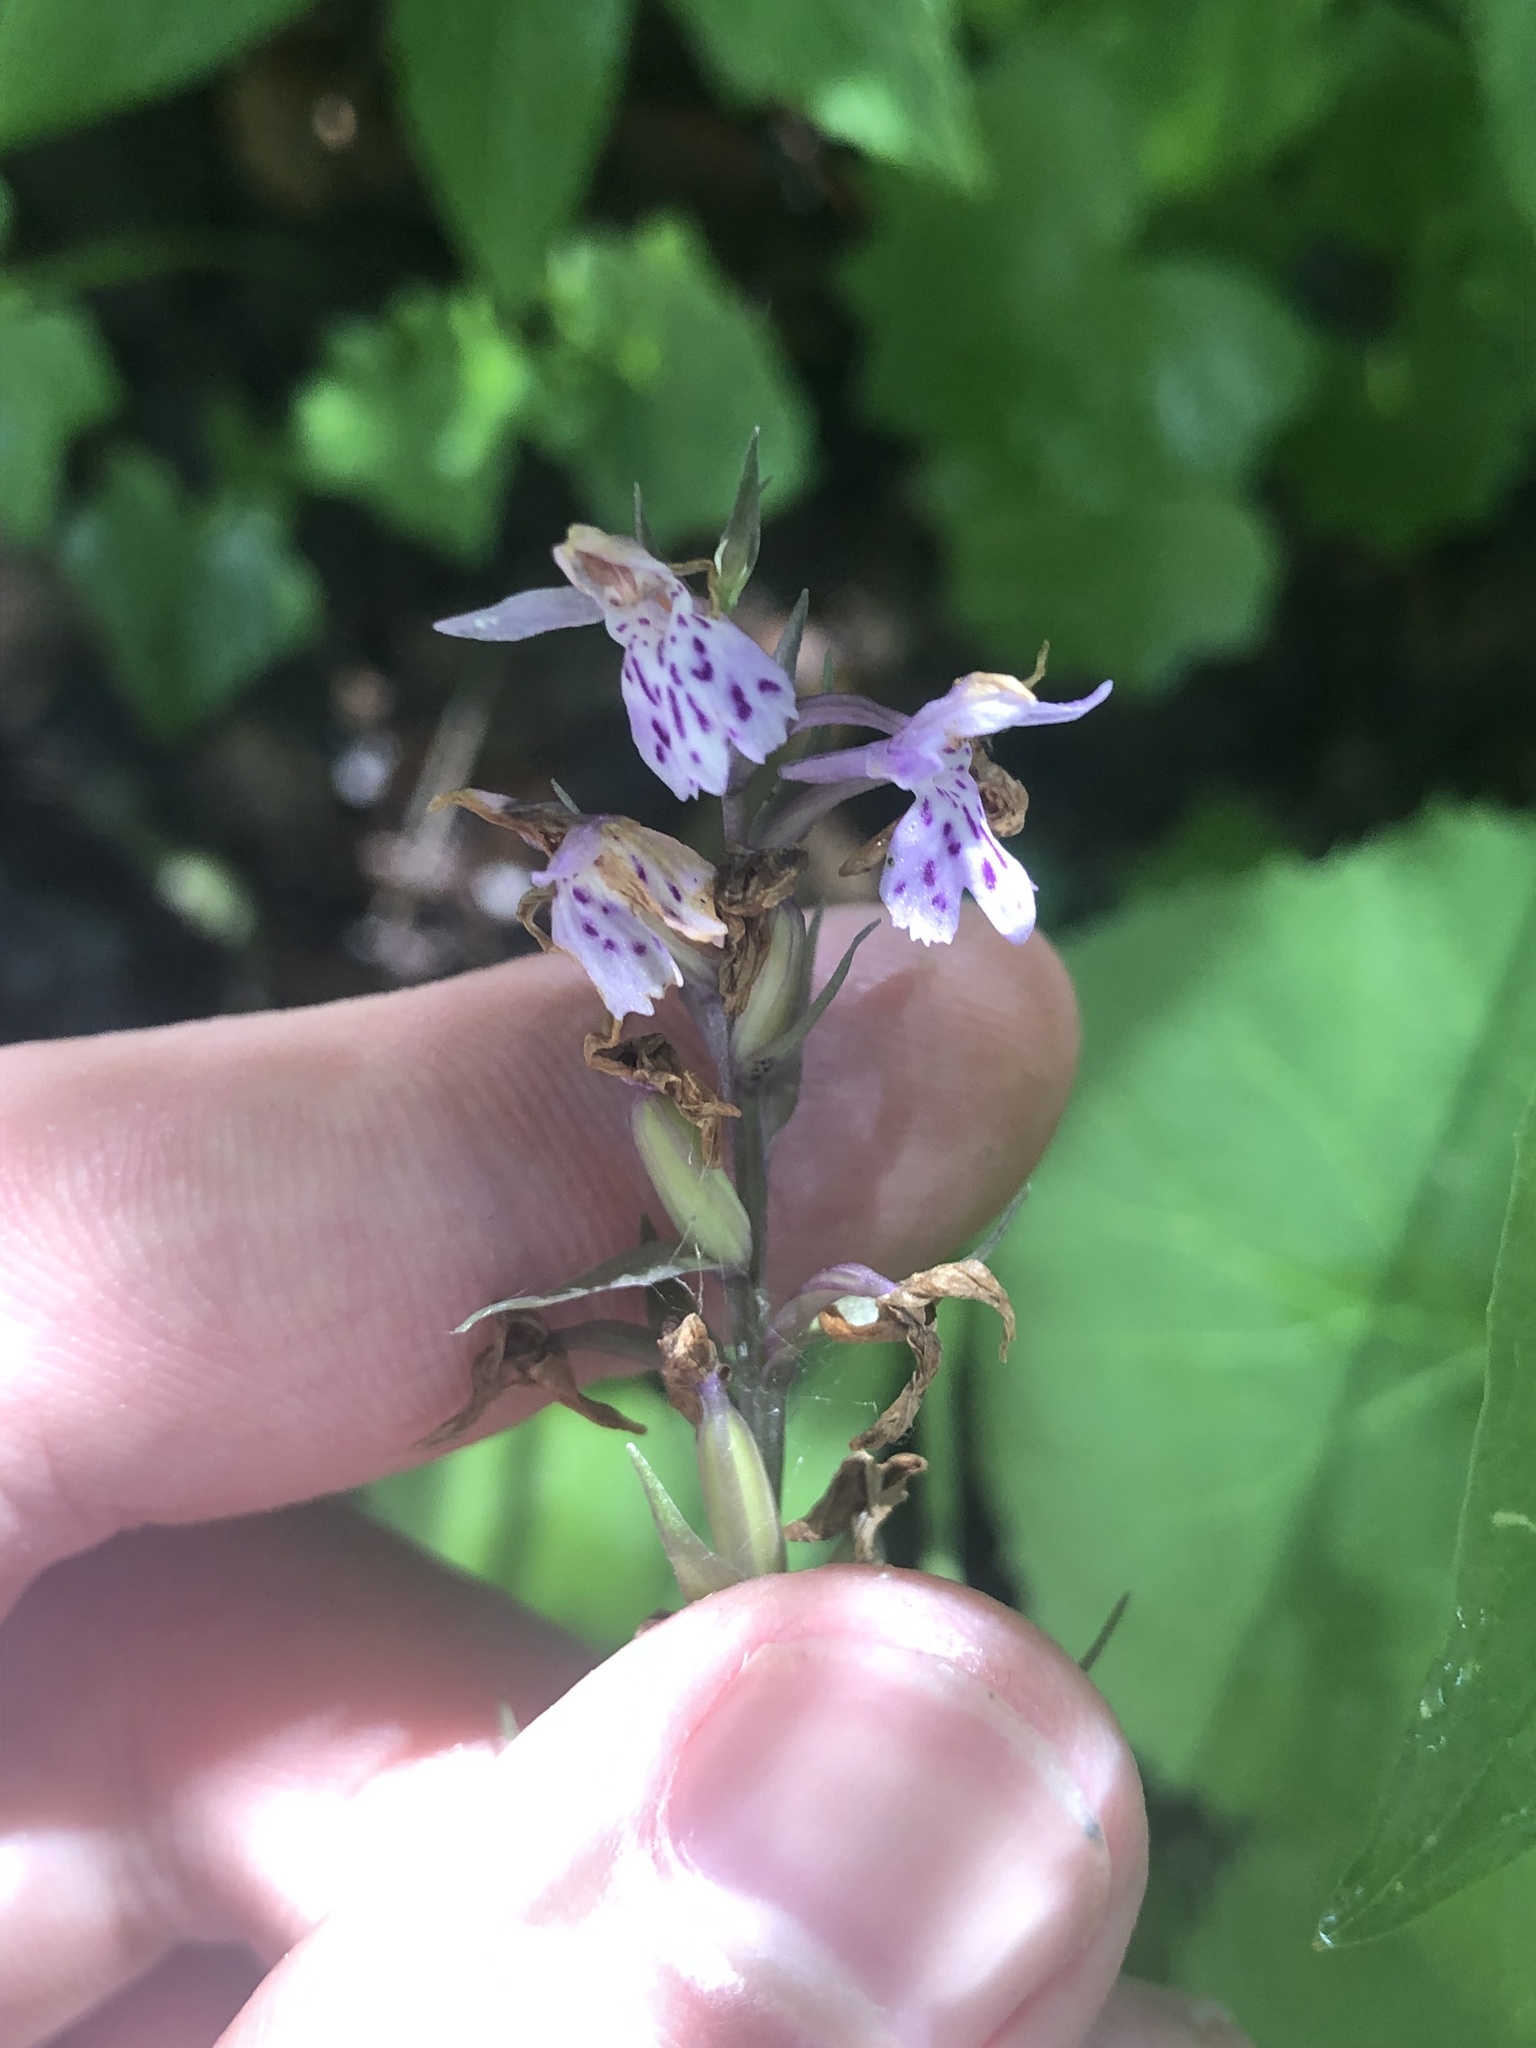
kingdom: Plantae
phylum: Tracheophyta
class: Liliopsida
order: Asparagales
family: Orchidaceae
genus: Dactylorhiza
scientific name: Dactylorhiza maculata
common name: Heath spotted-orchid
